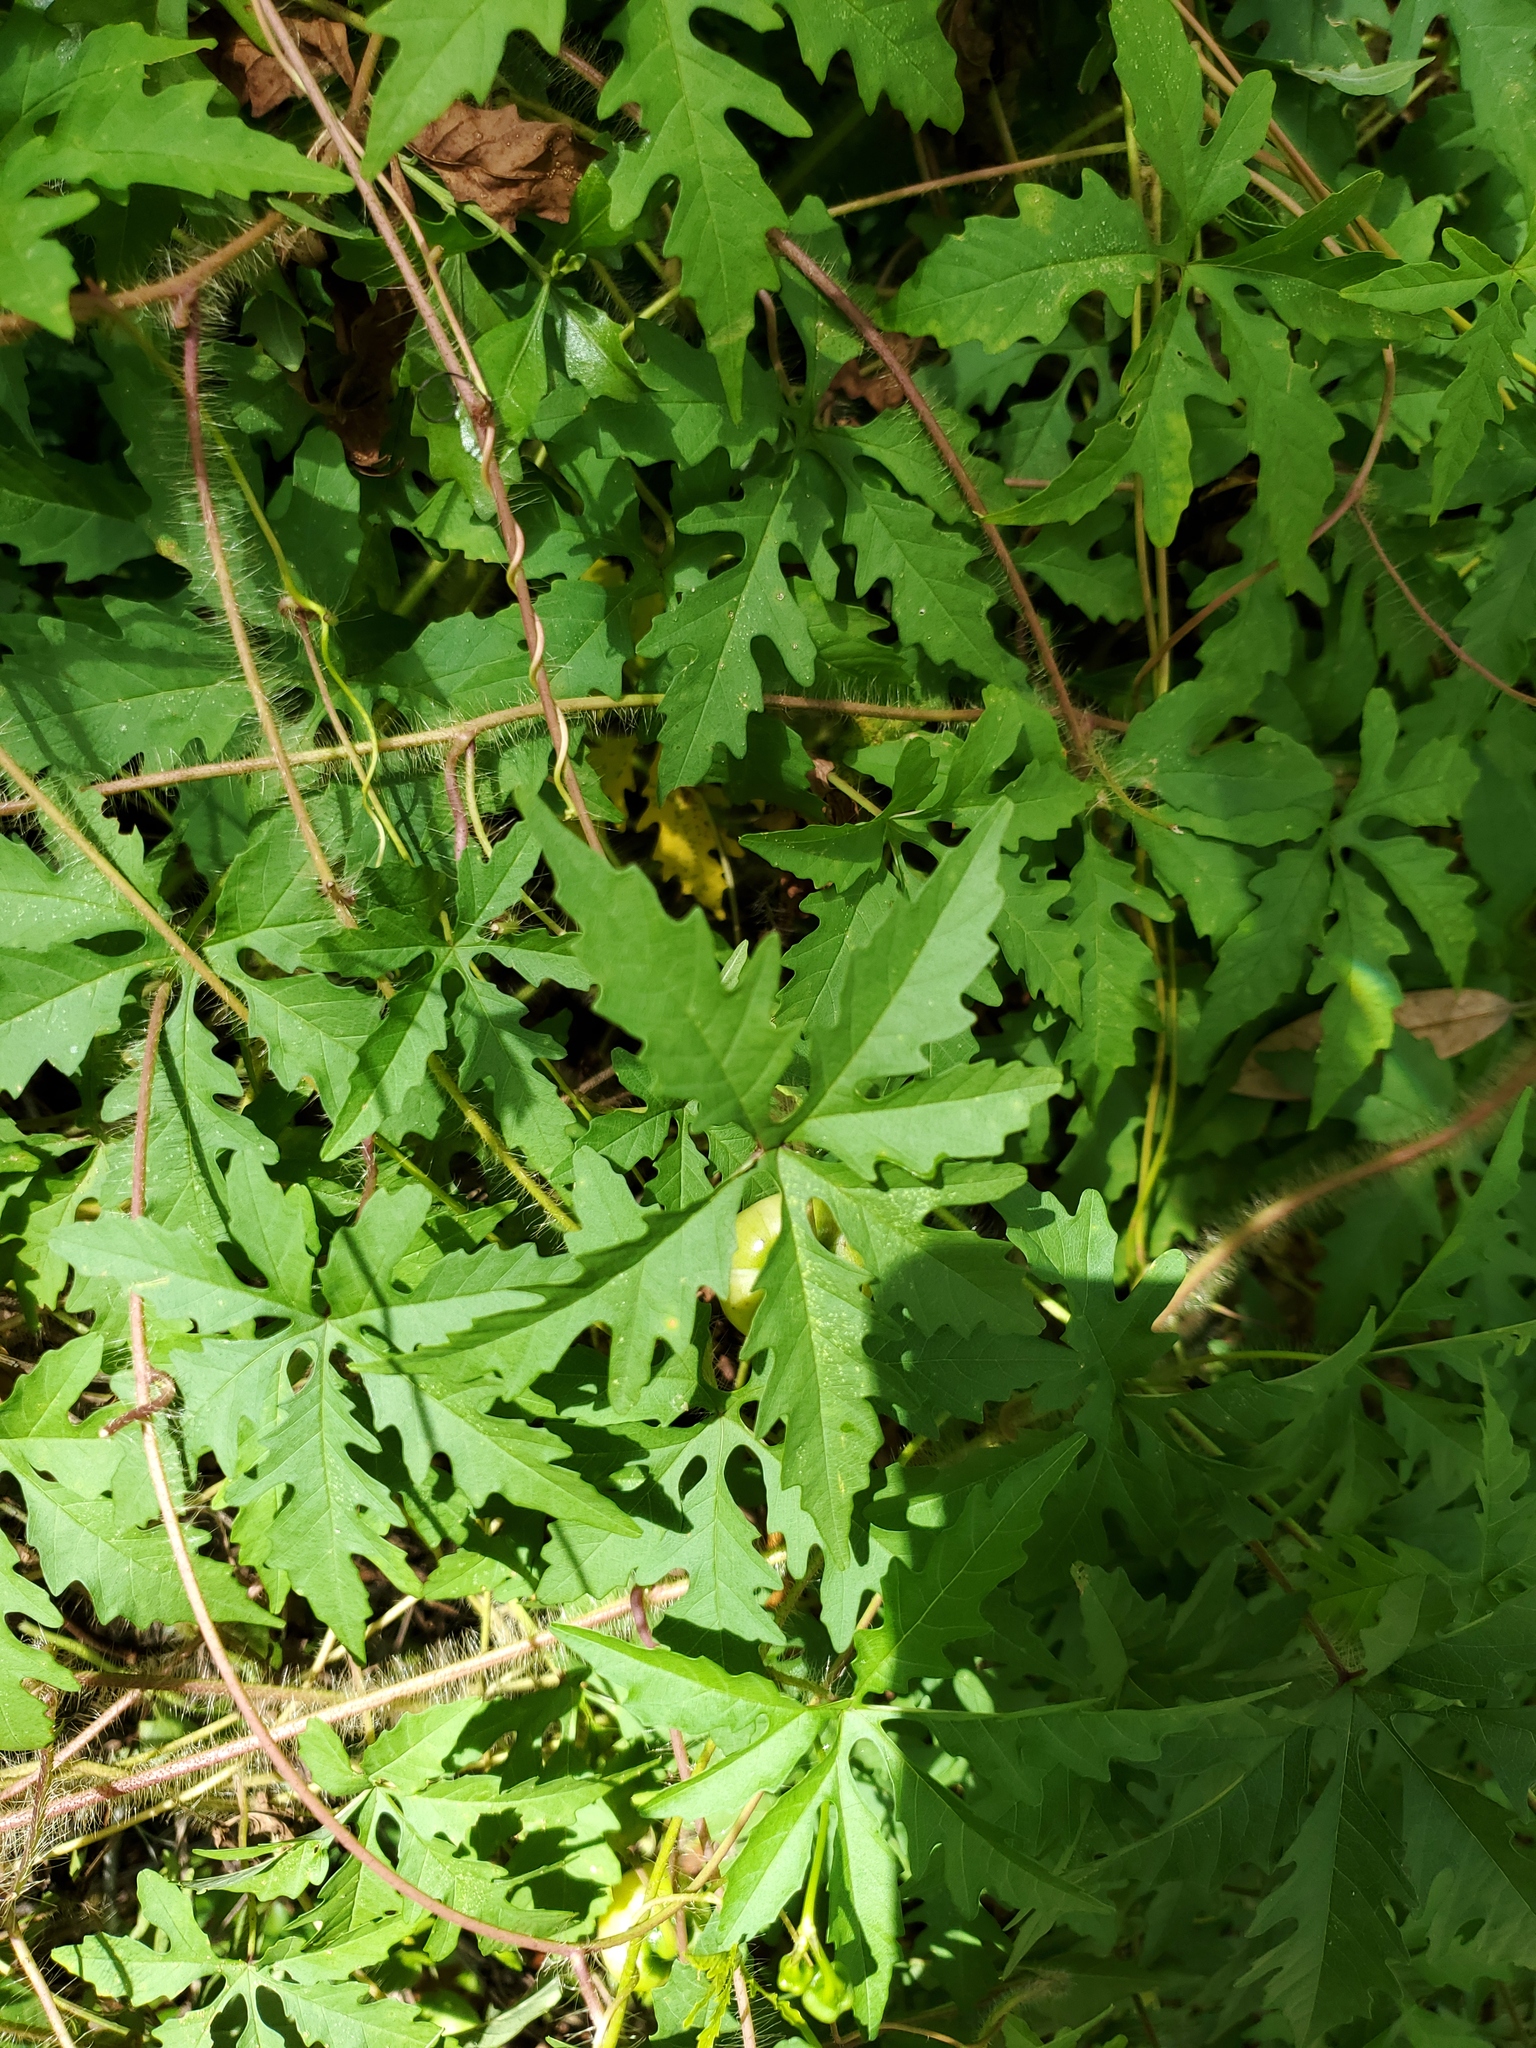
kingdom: Plantae
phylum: Tracheophyta
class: Magnoliopsida
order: Solanales
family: Convolvulaceae
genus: Distimake
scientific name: Distimake dissectus
